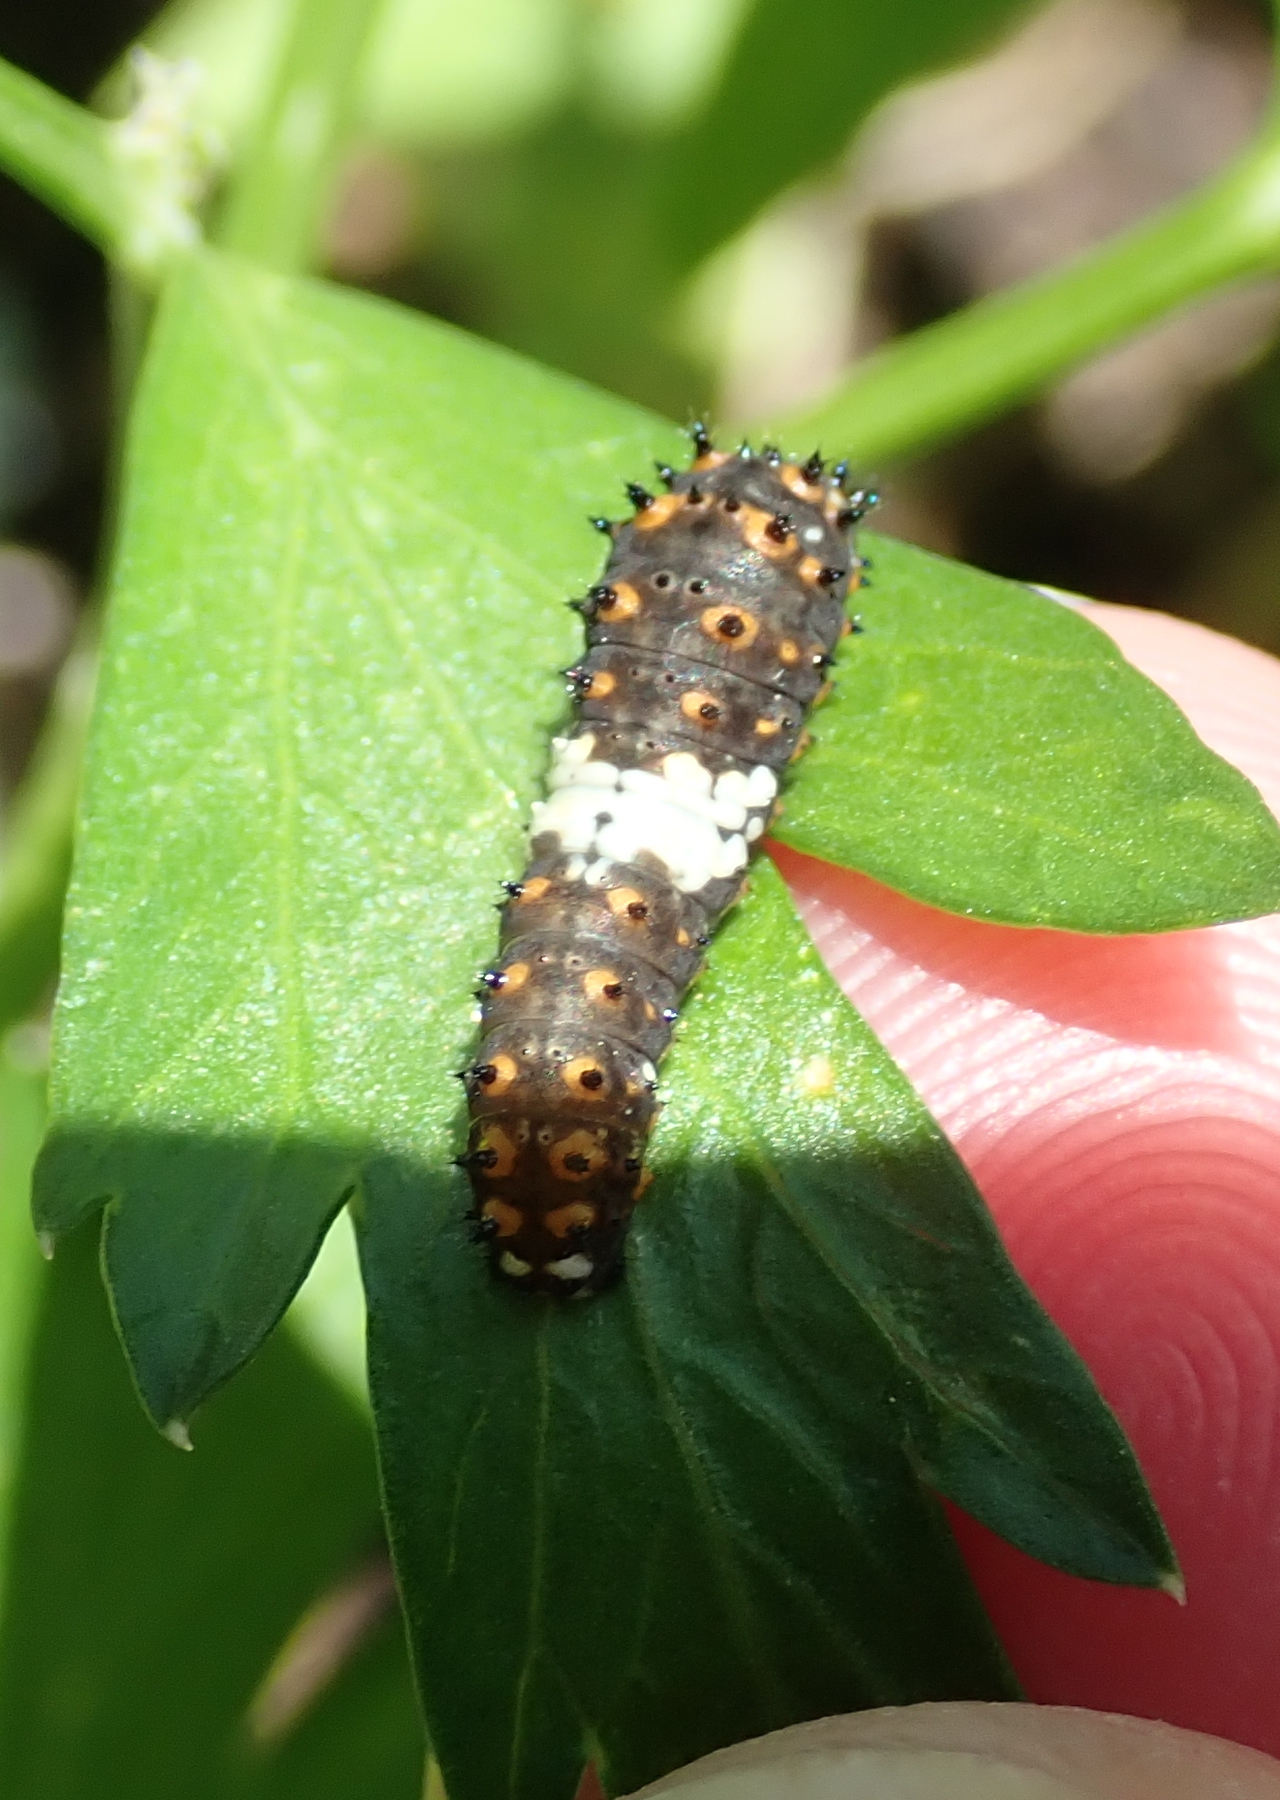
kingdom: Animalia
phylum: Arthropoda
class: Insecta
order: Lepidoptera
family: Papilionidae
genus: Papilio
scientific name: Papilio polyxenes
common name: Black swallowtail
